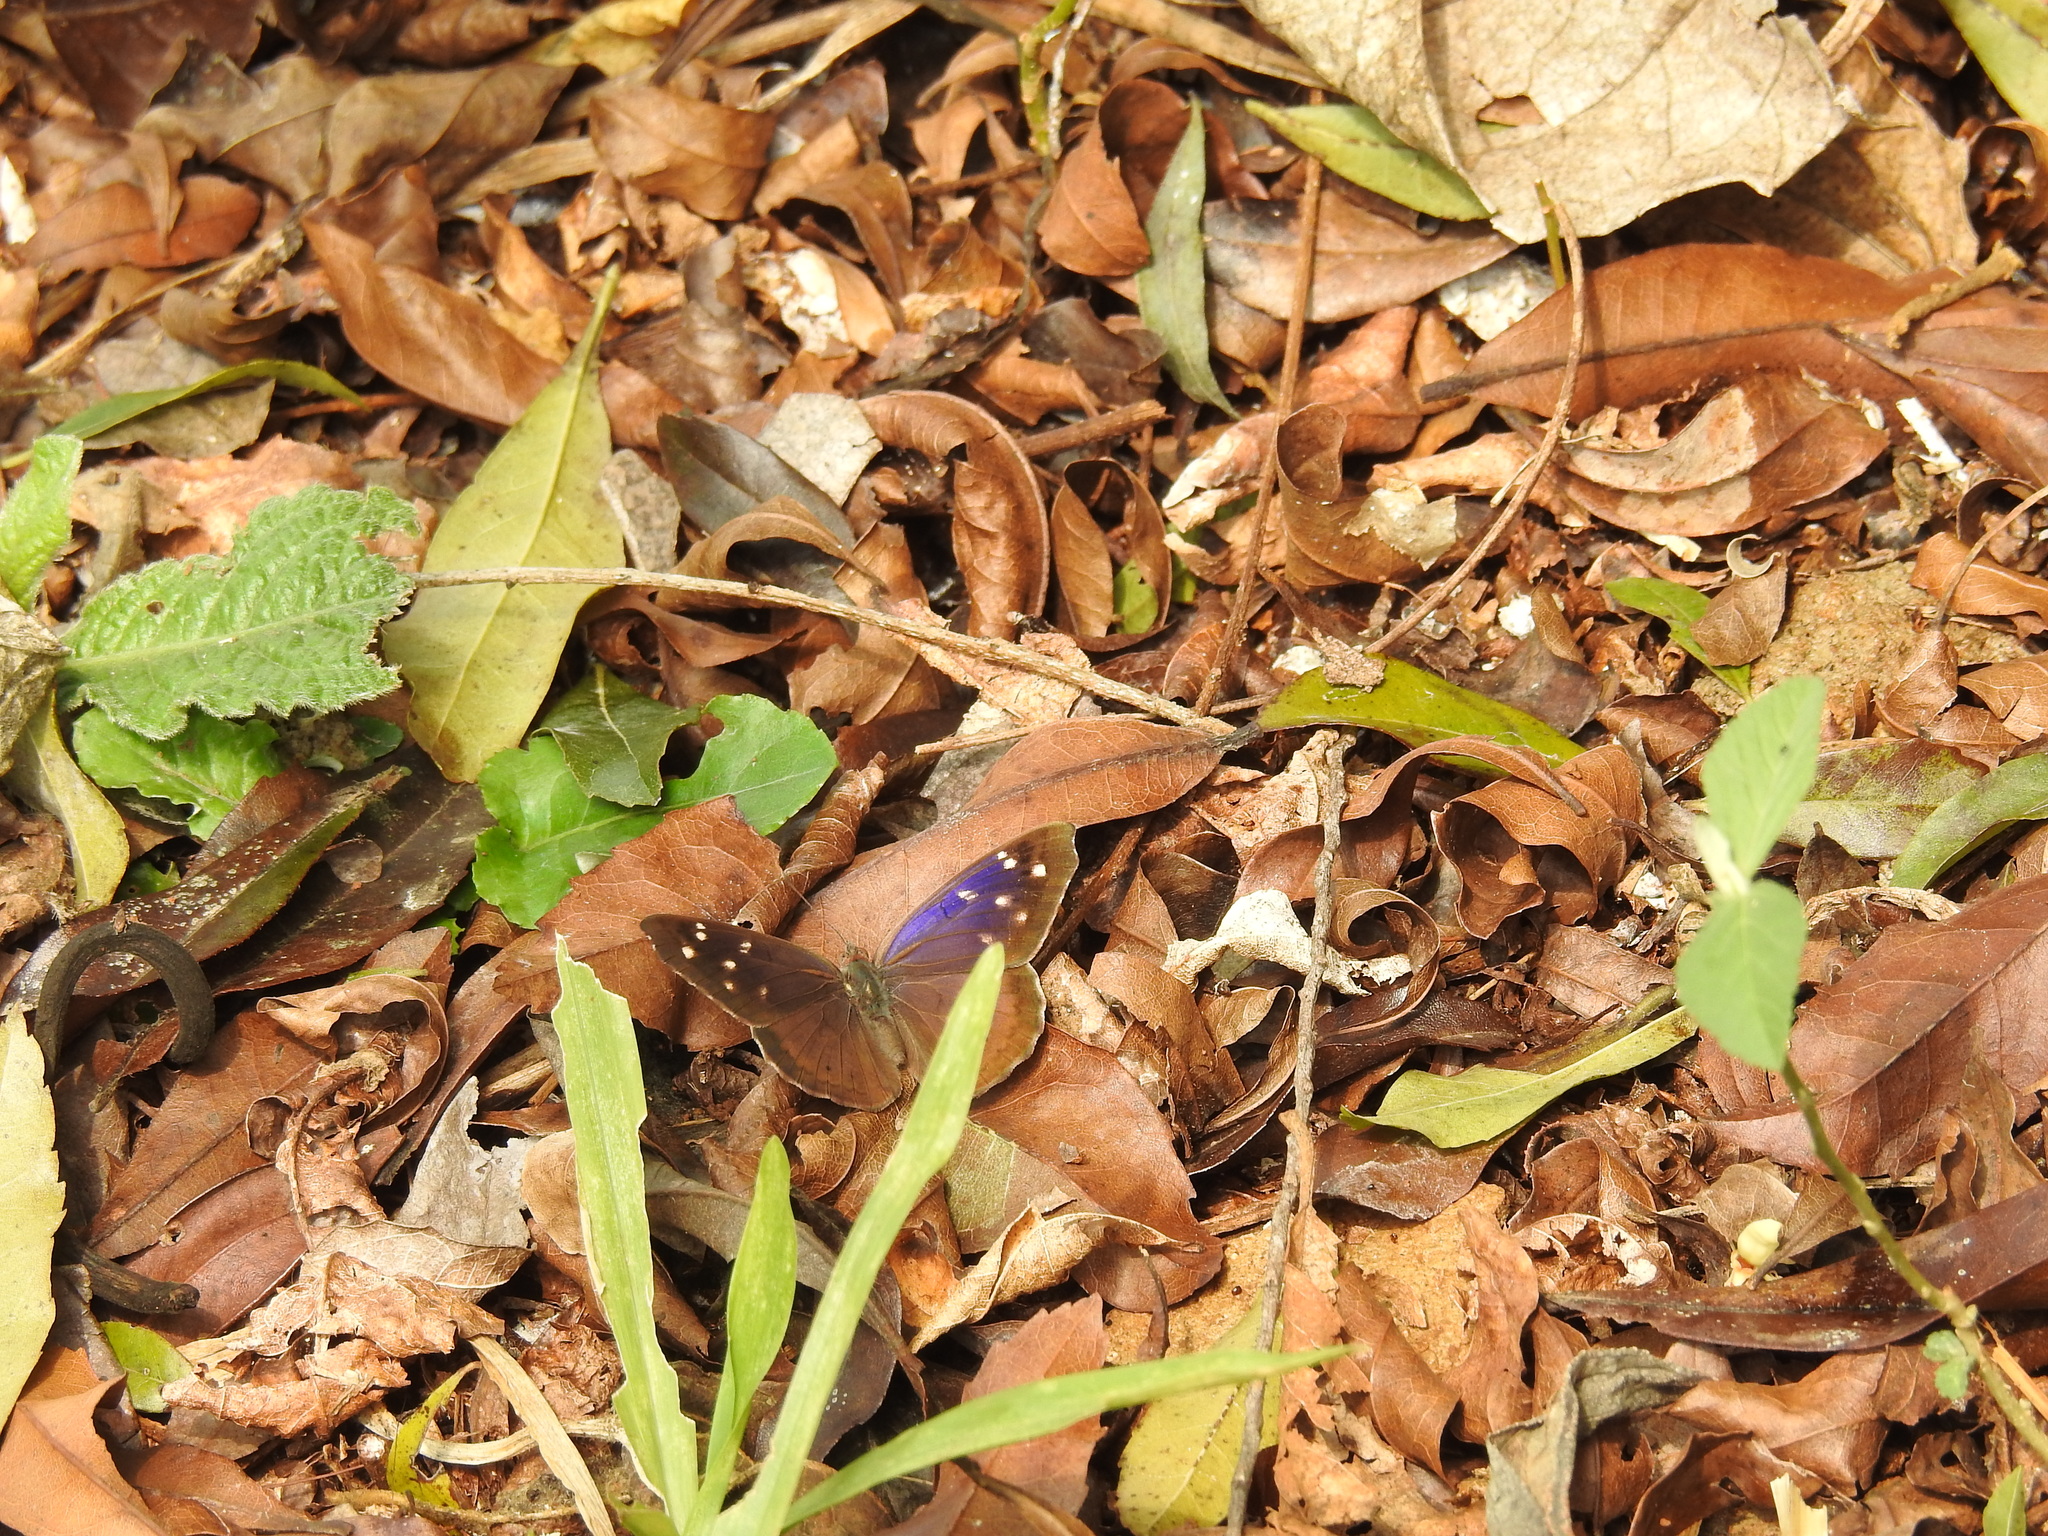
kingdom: Animalia
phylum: Arthropoda
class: Insecta
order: Lepidoptera
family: Nymphalidae
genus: Eunica
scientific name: Eunica tatila
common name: Florida purplewing
